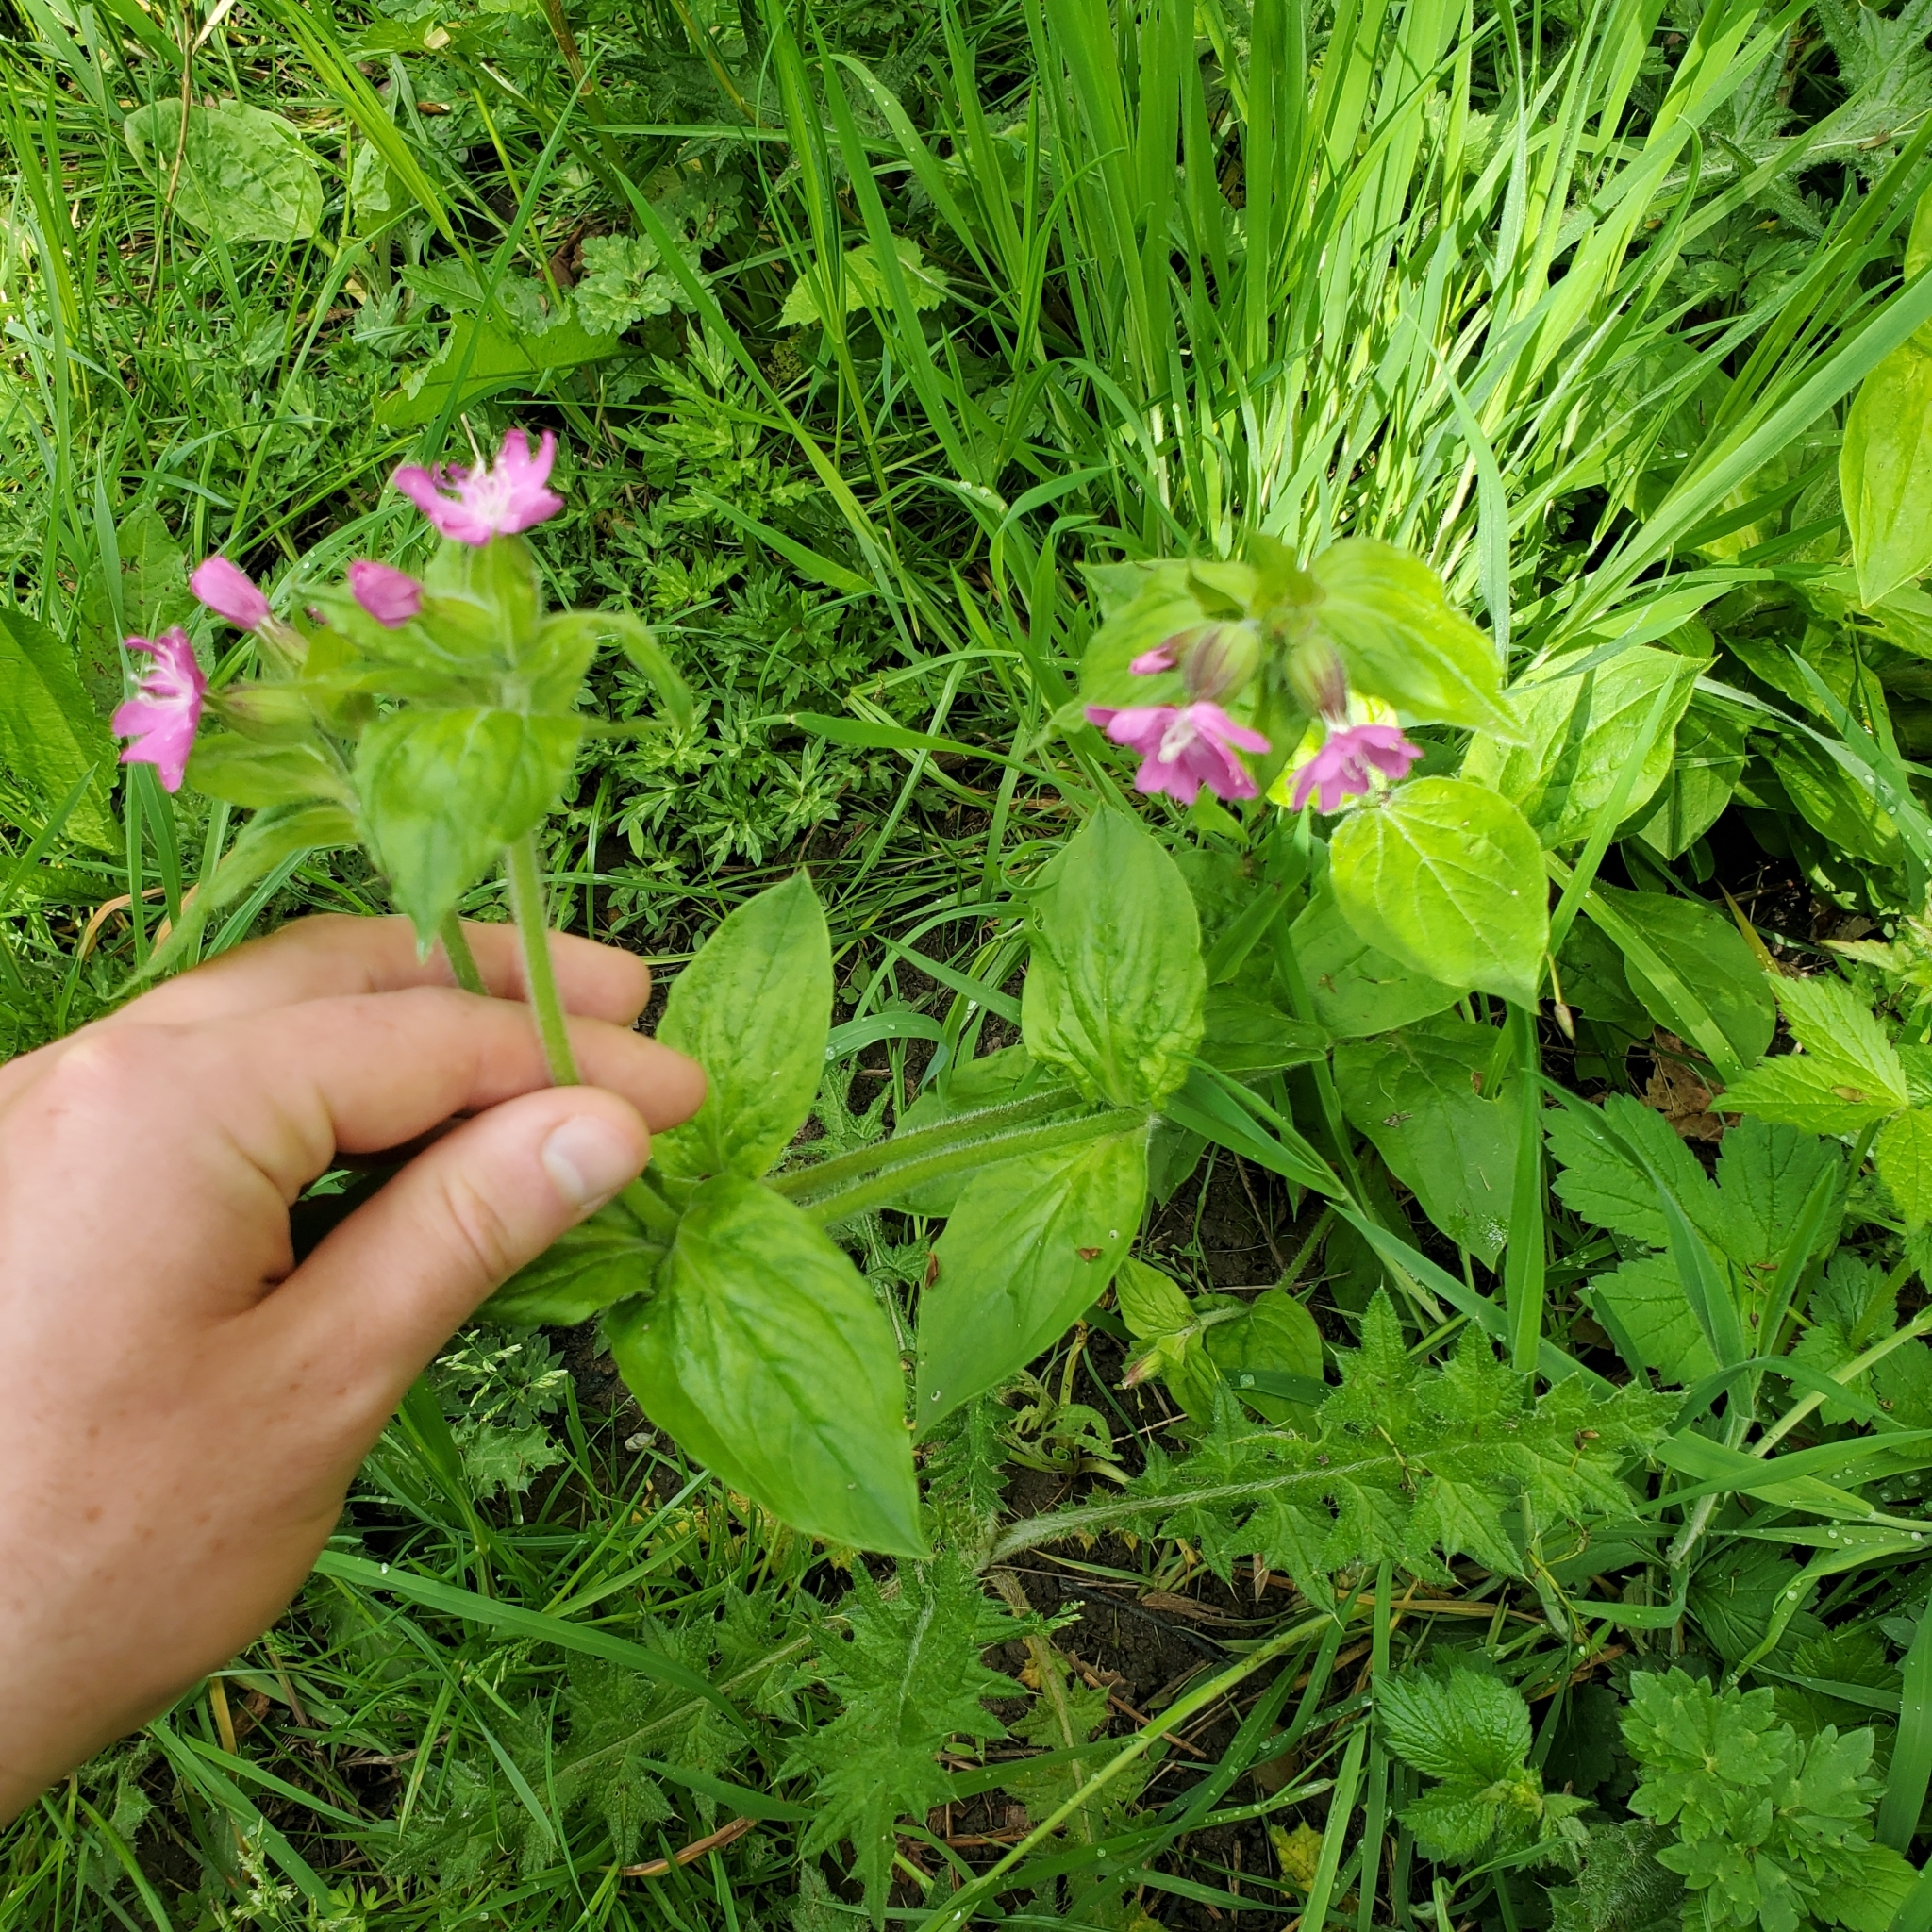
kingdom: Plantae
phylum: Tracheophyta
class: Magnoliopsida
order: Caryophyllales
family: Caryophyllaceae
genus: Silene
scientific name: Silene dioica
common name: Red campion
